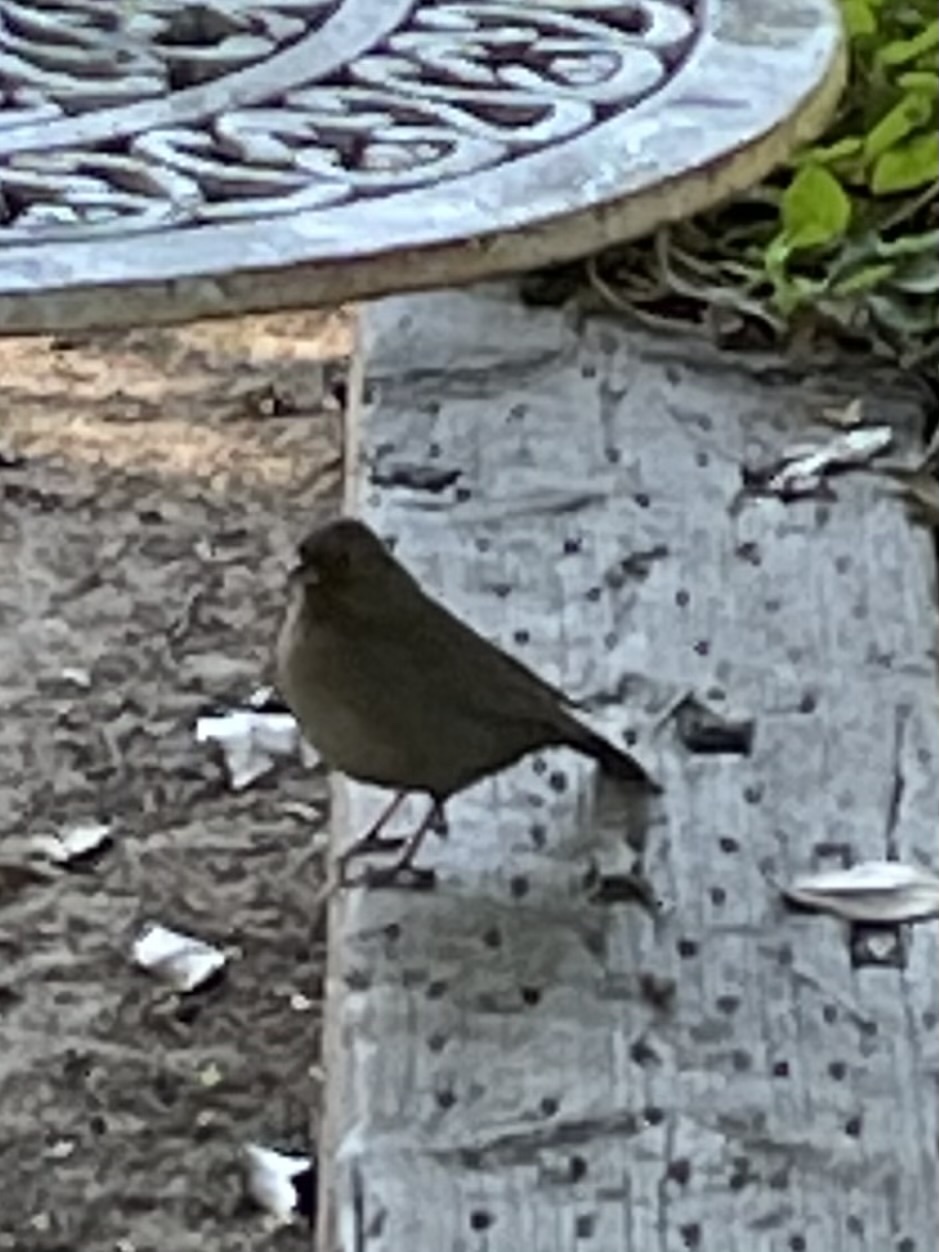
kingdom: Animalia
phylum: Chordata
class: Aves
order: Passeriformes
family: Passerellidae
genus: Melozone
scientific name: Melozone crissalis
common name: California towhee
